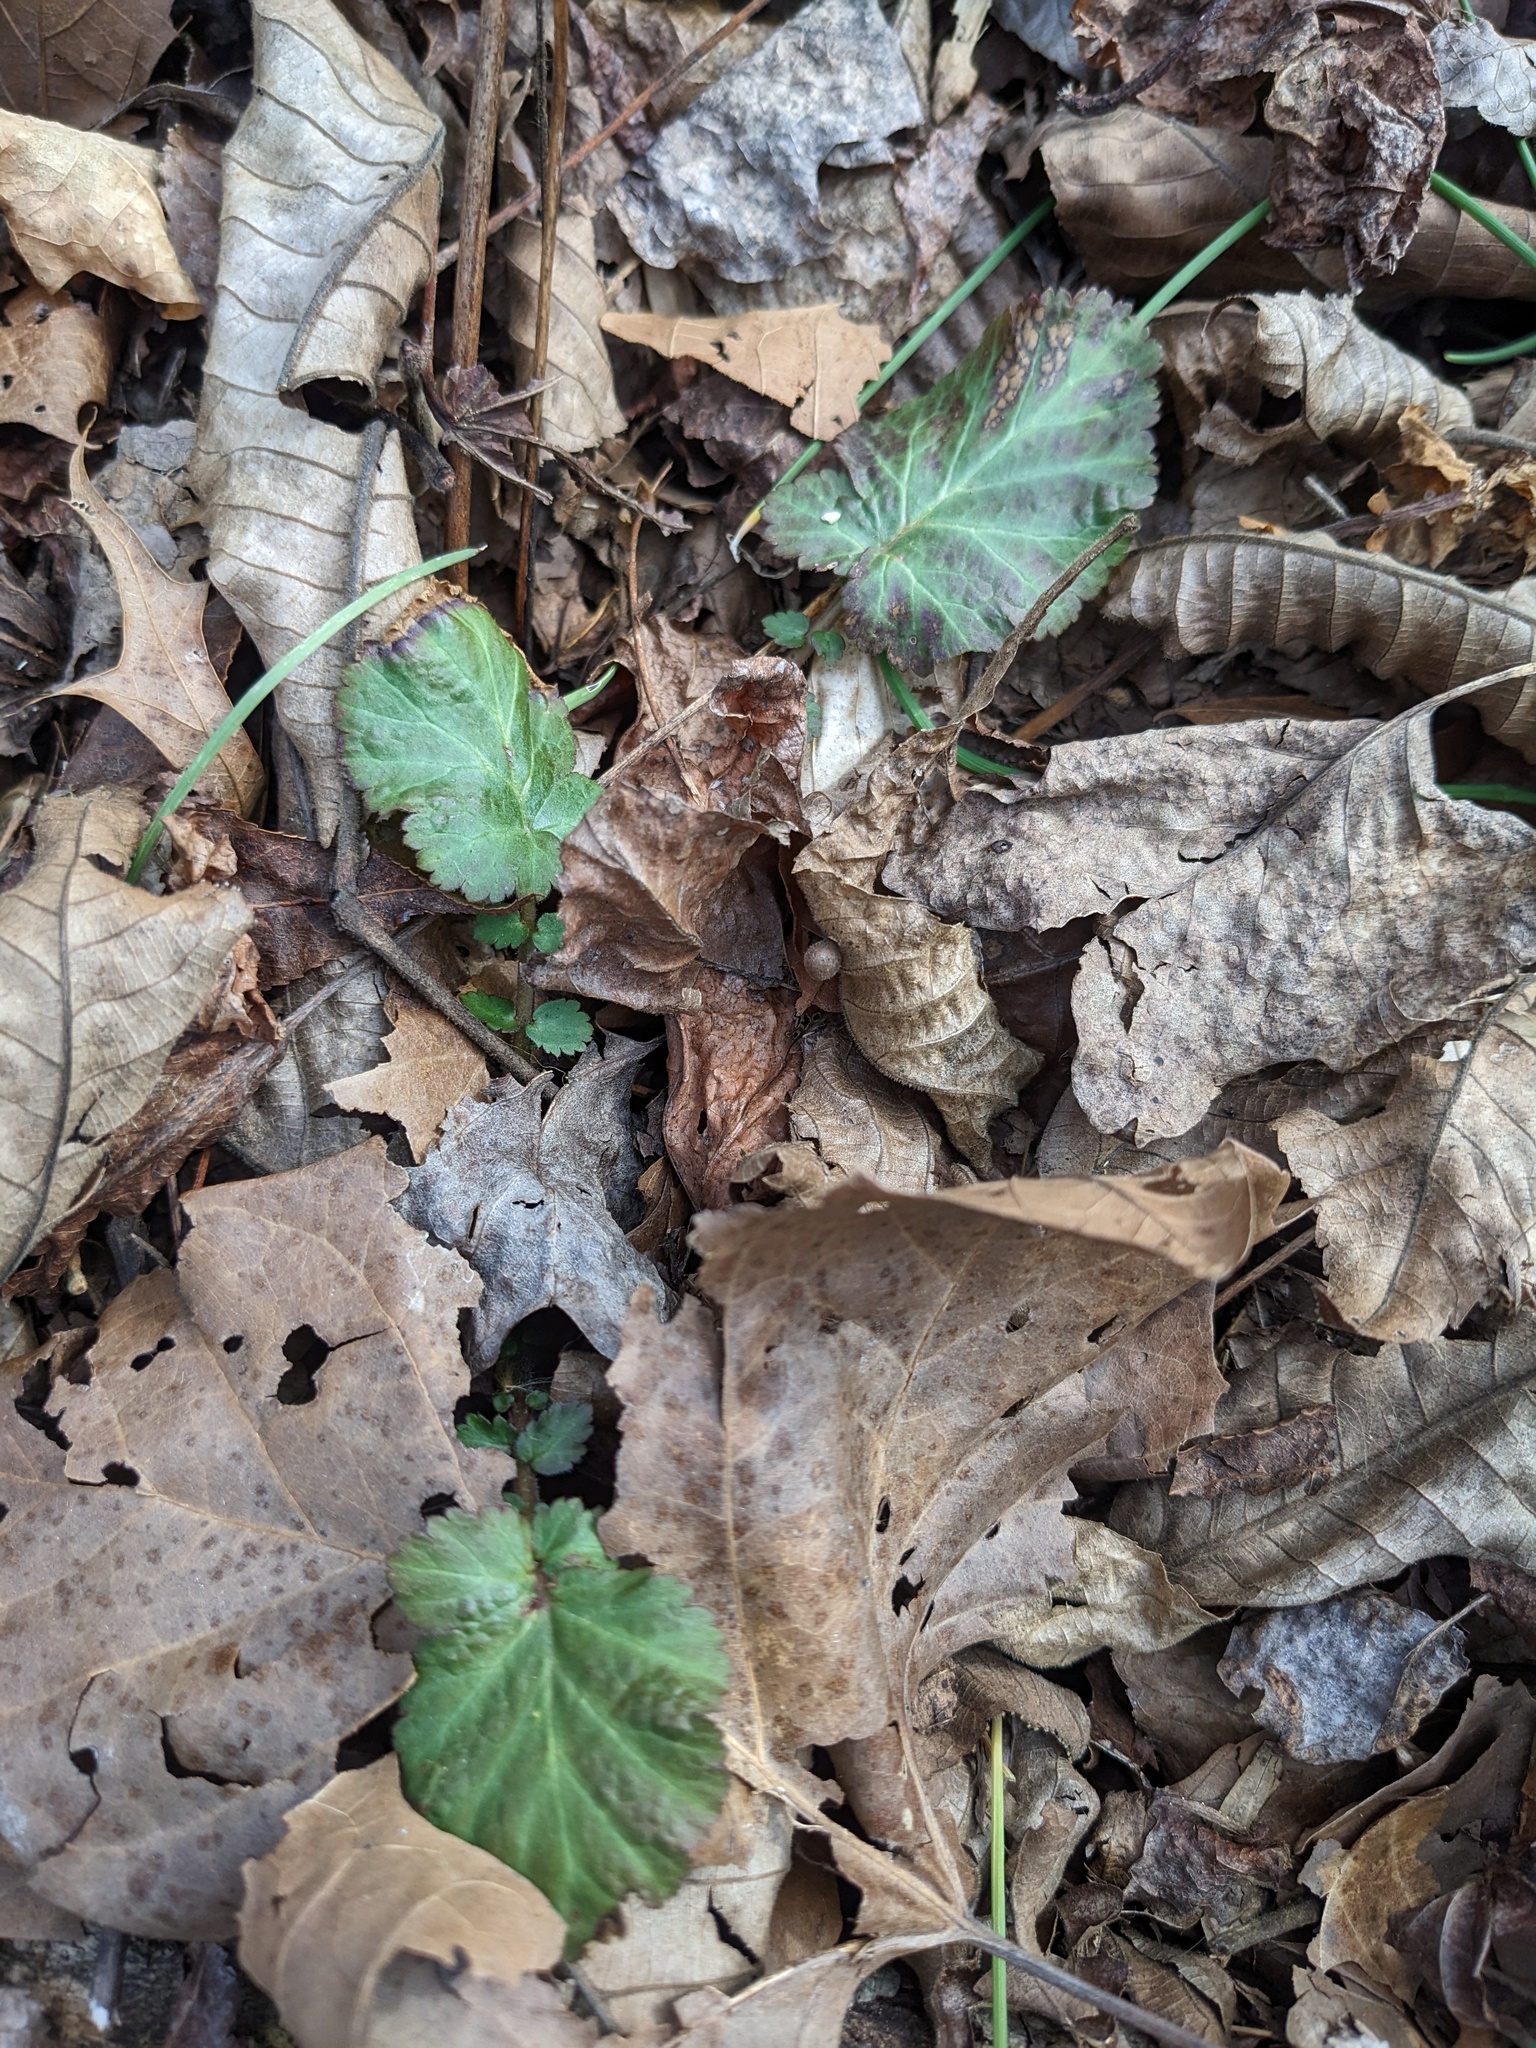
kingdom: Plantae
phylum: Tracheophyta
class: Magnoliopsida
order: Rosales
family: Rosaceae
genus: Geum
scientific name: Geum canadense
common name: White avens
